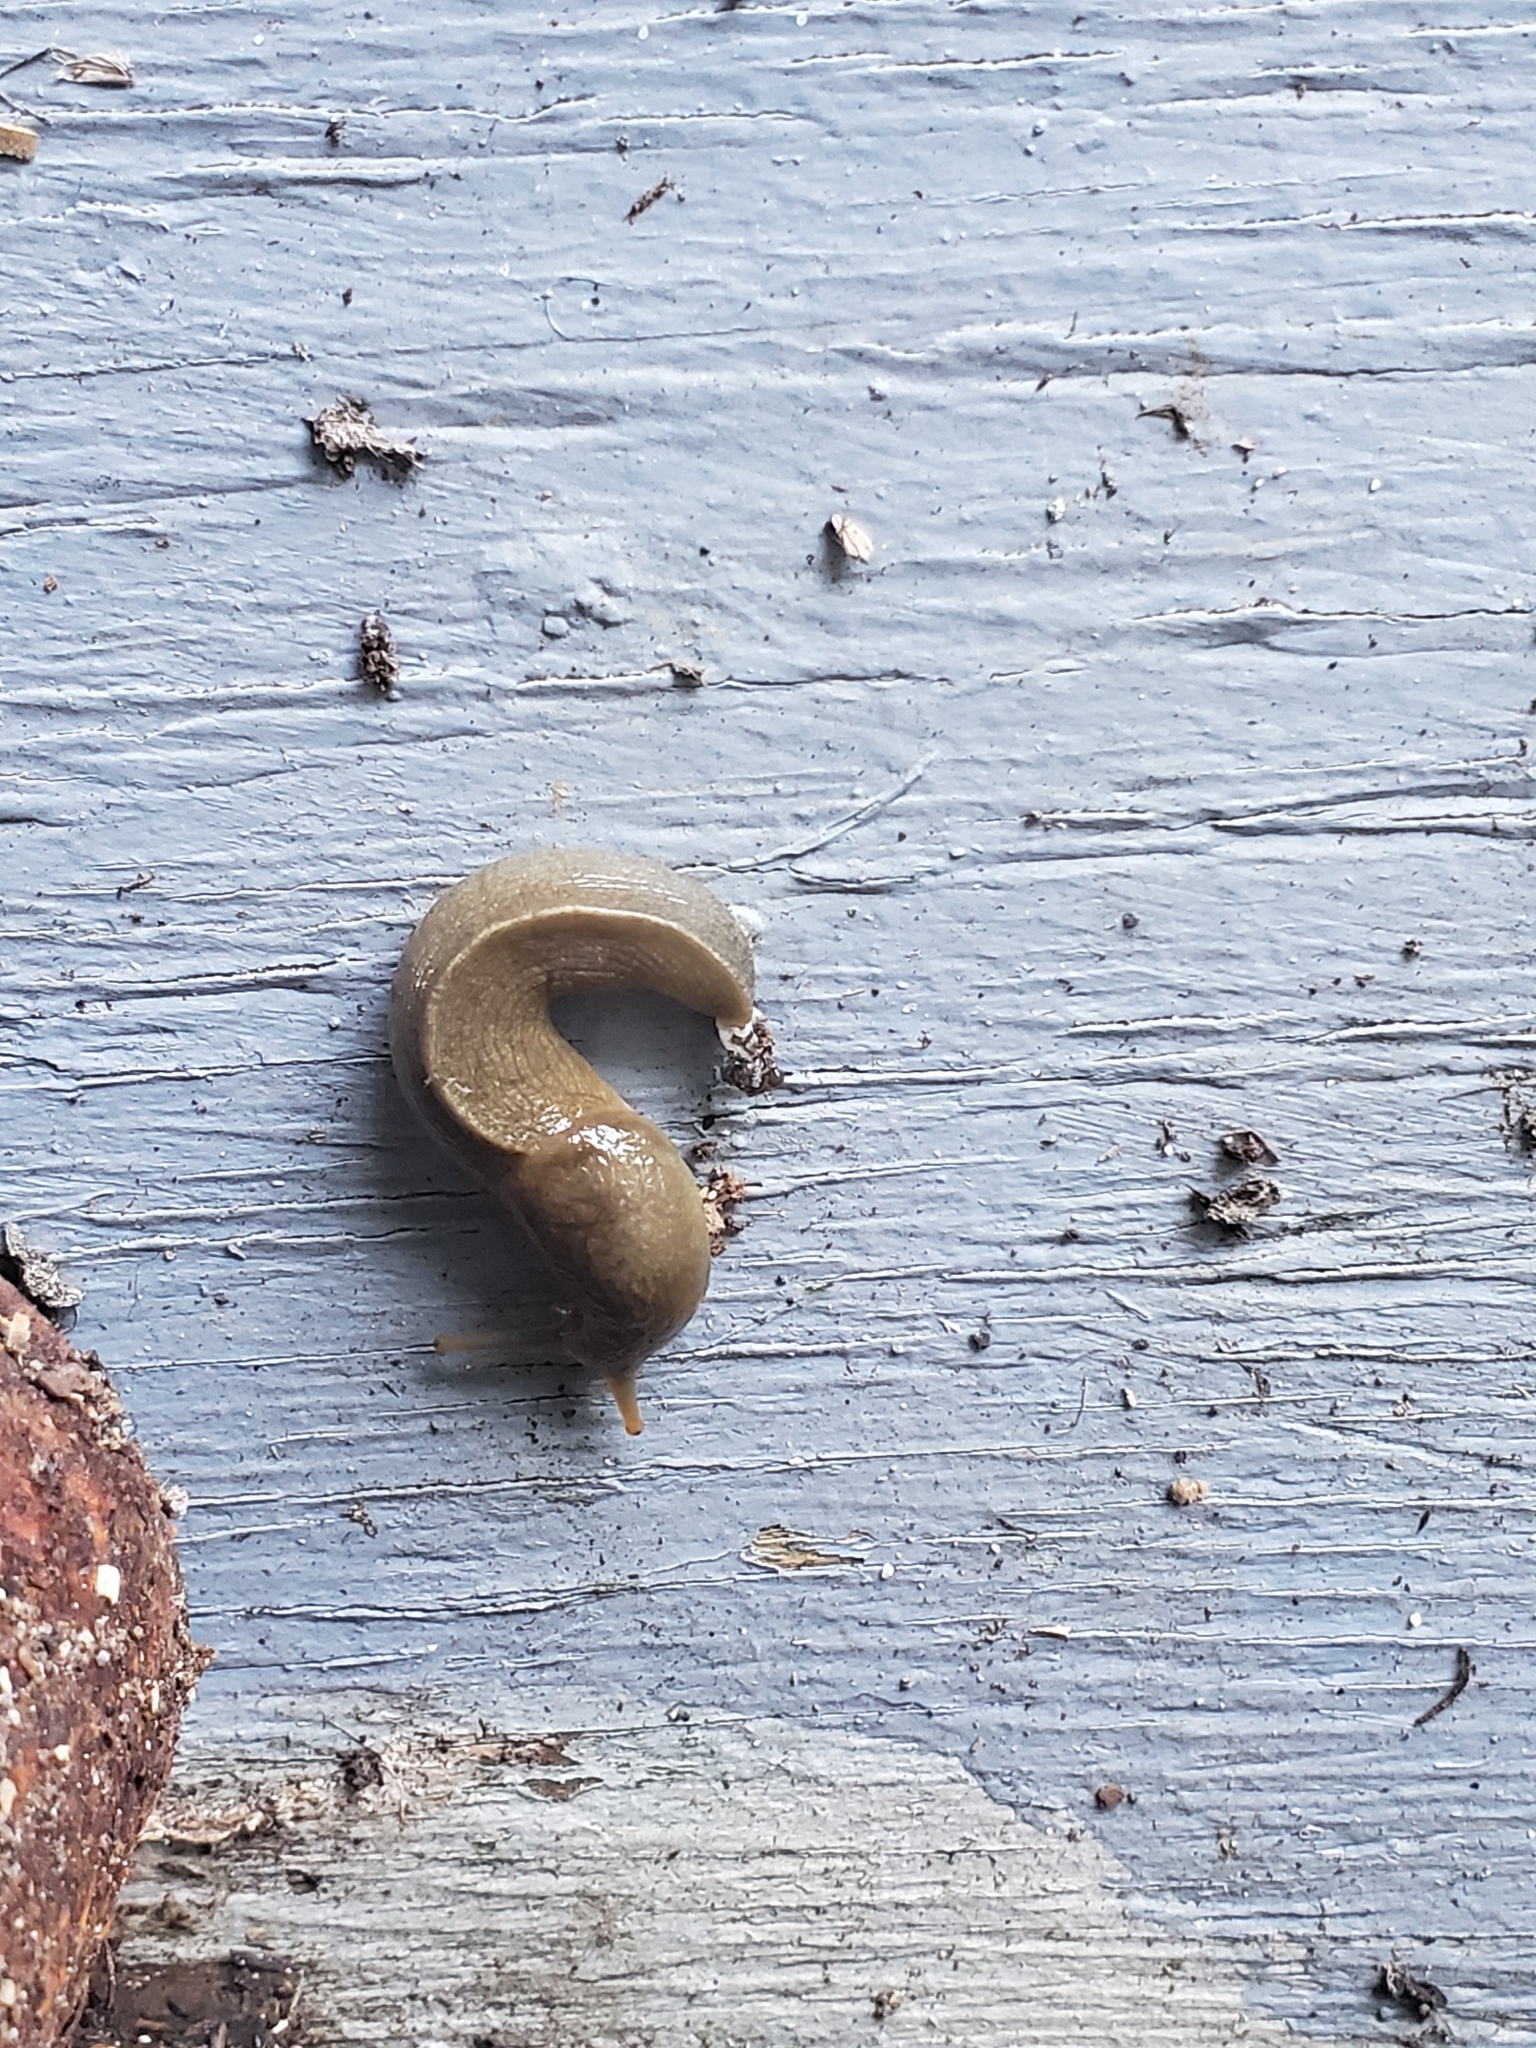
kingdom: Animalia
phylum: Mollusca
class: Gastropoda
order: Stylommatophora
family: Ariolimacidae
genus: Ariolimax
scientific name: Ariolimax columbianus
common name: Pacific banana slug
